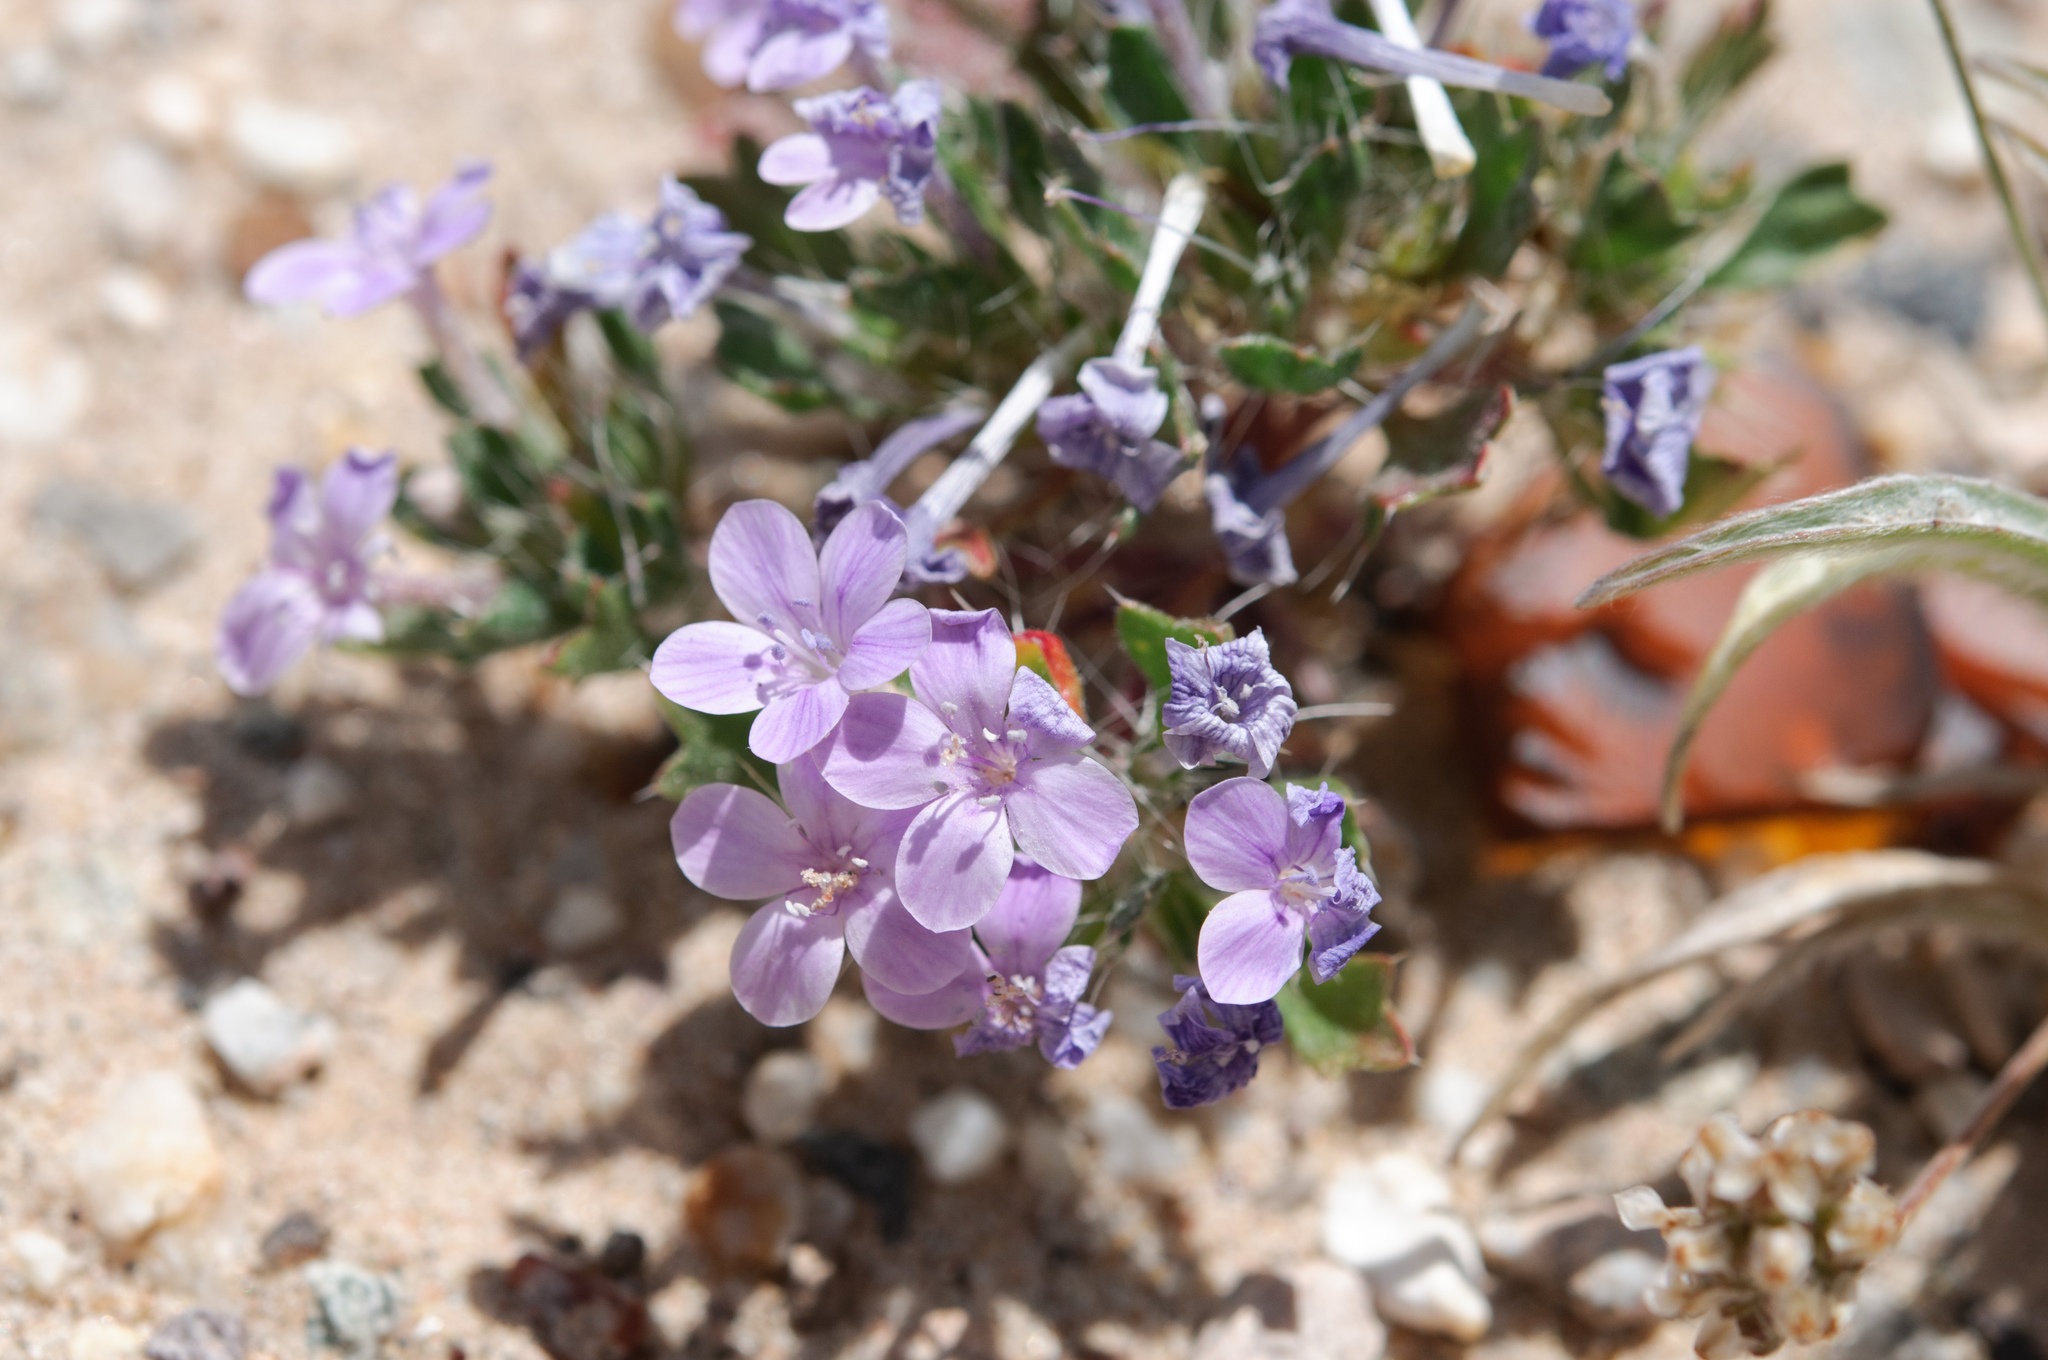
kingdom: Plantae
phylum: Tracheophyta
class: Magnoliopsida
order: Ericales
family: Polemoniaceae
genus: Langloisia
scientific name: Langloisia setosissima
